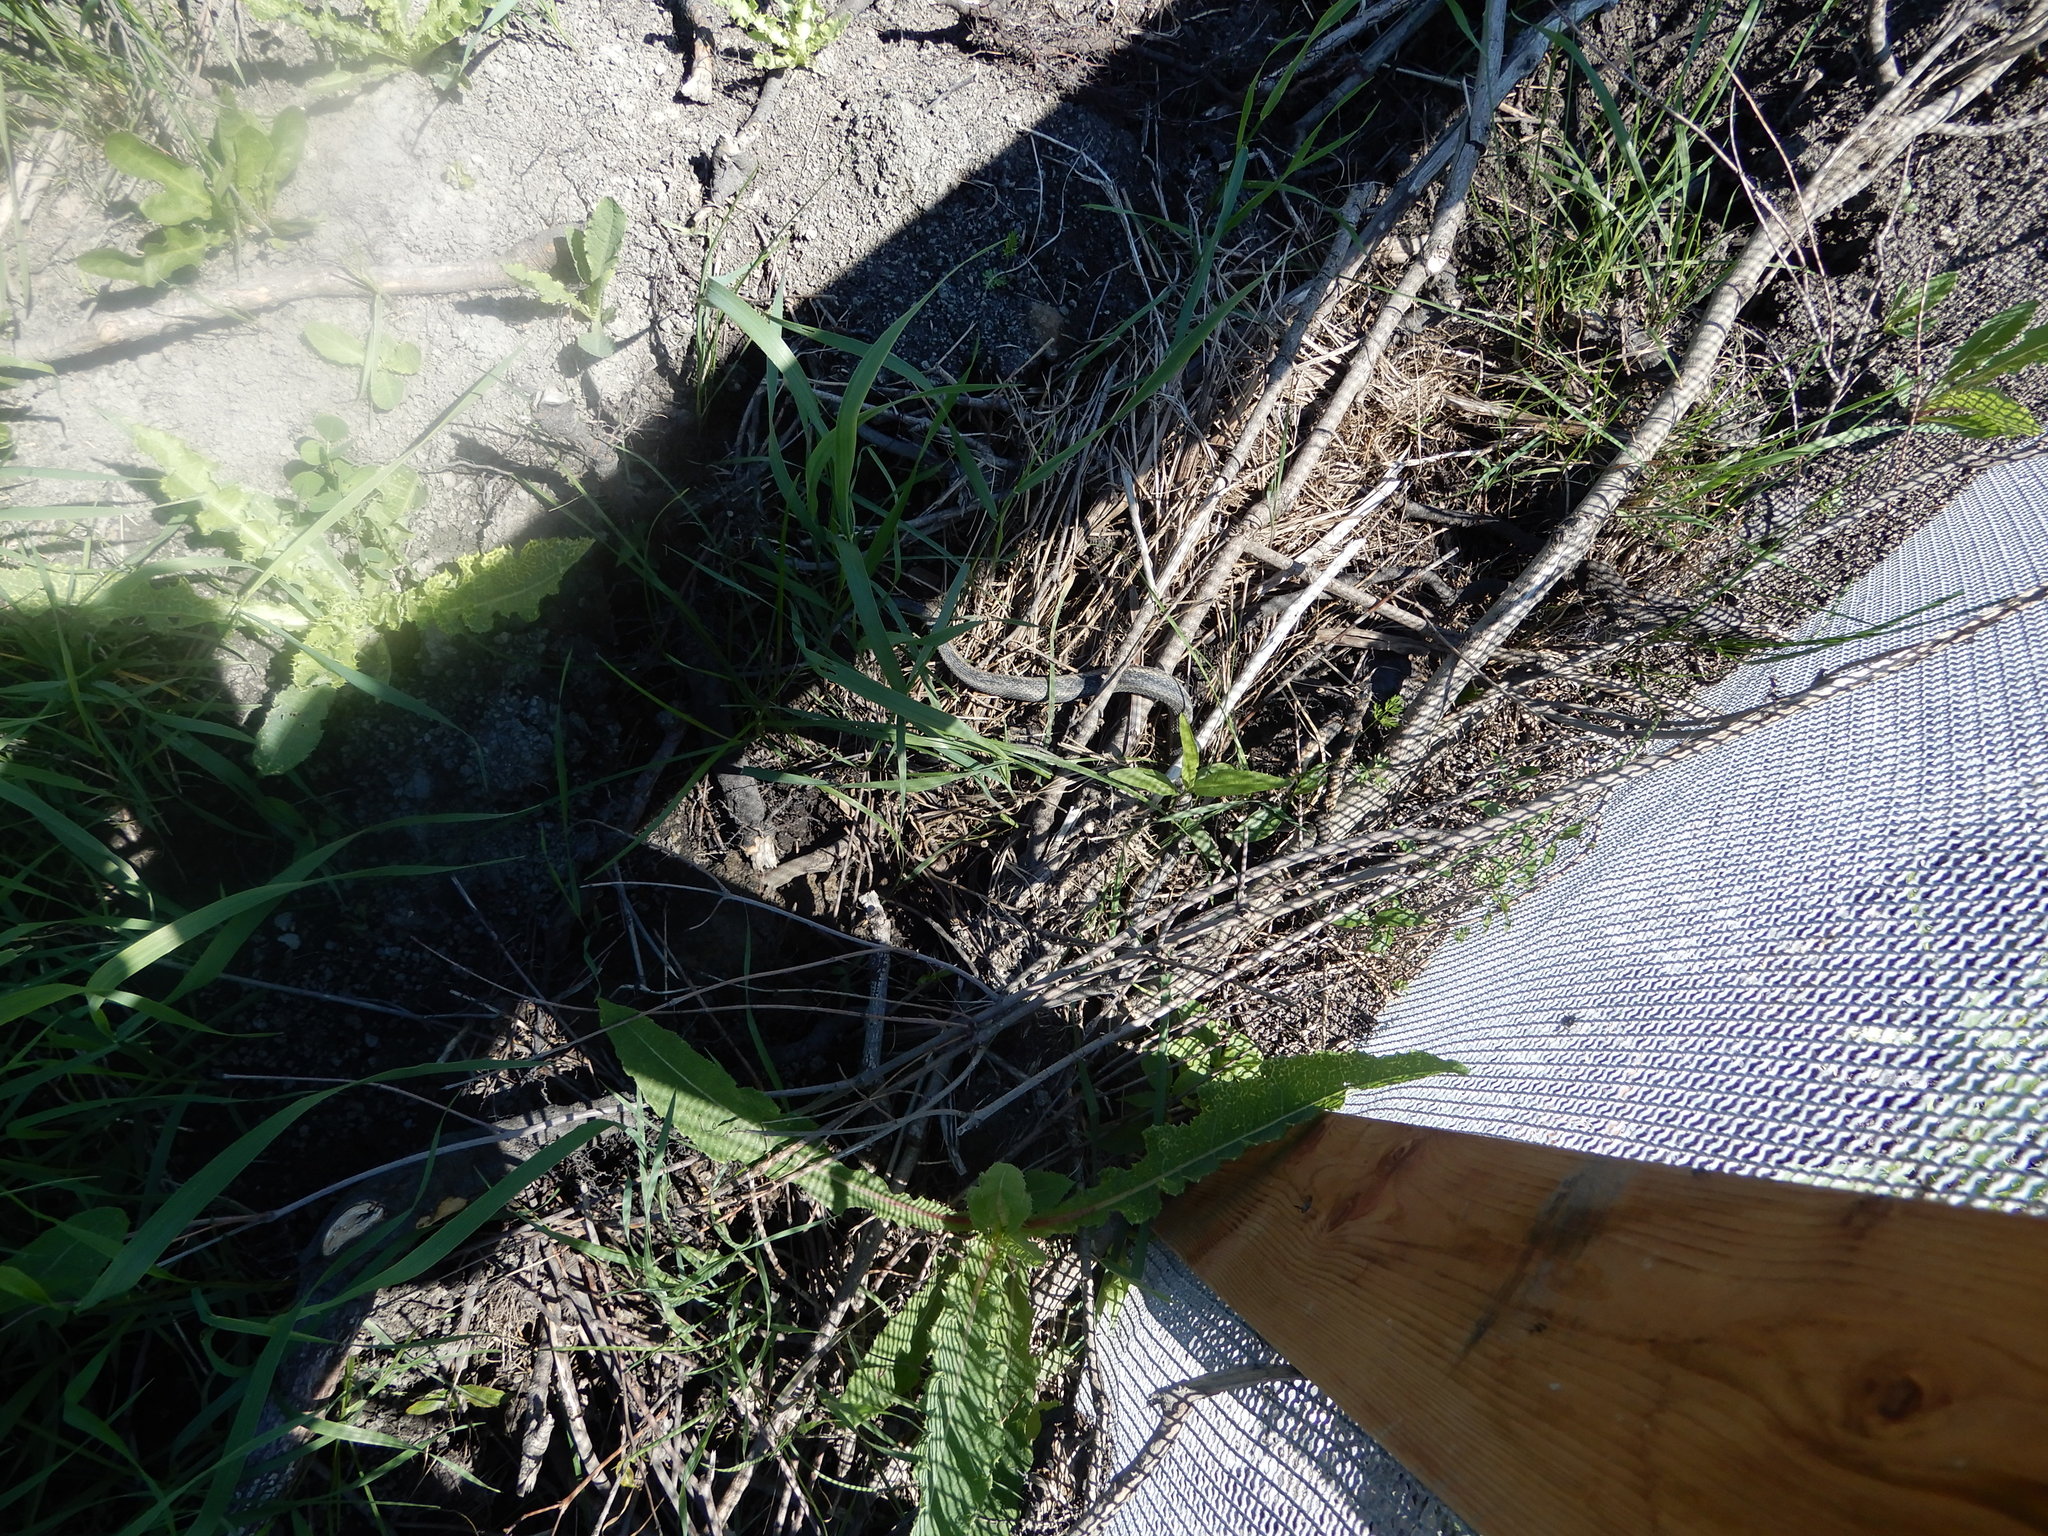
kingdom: Animalia
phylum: Chordata
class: Squamata
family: Colubridae
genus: Thamnophis
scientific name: Thamnophis sirtalis
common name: Common garter snake
